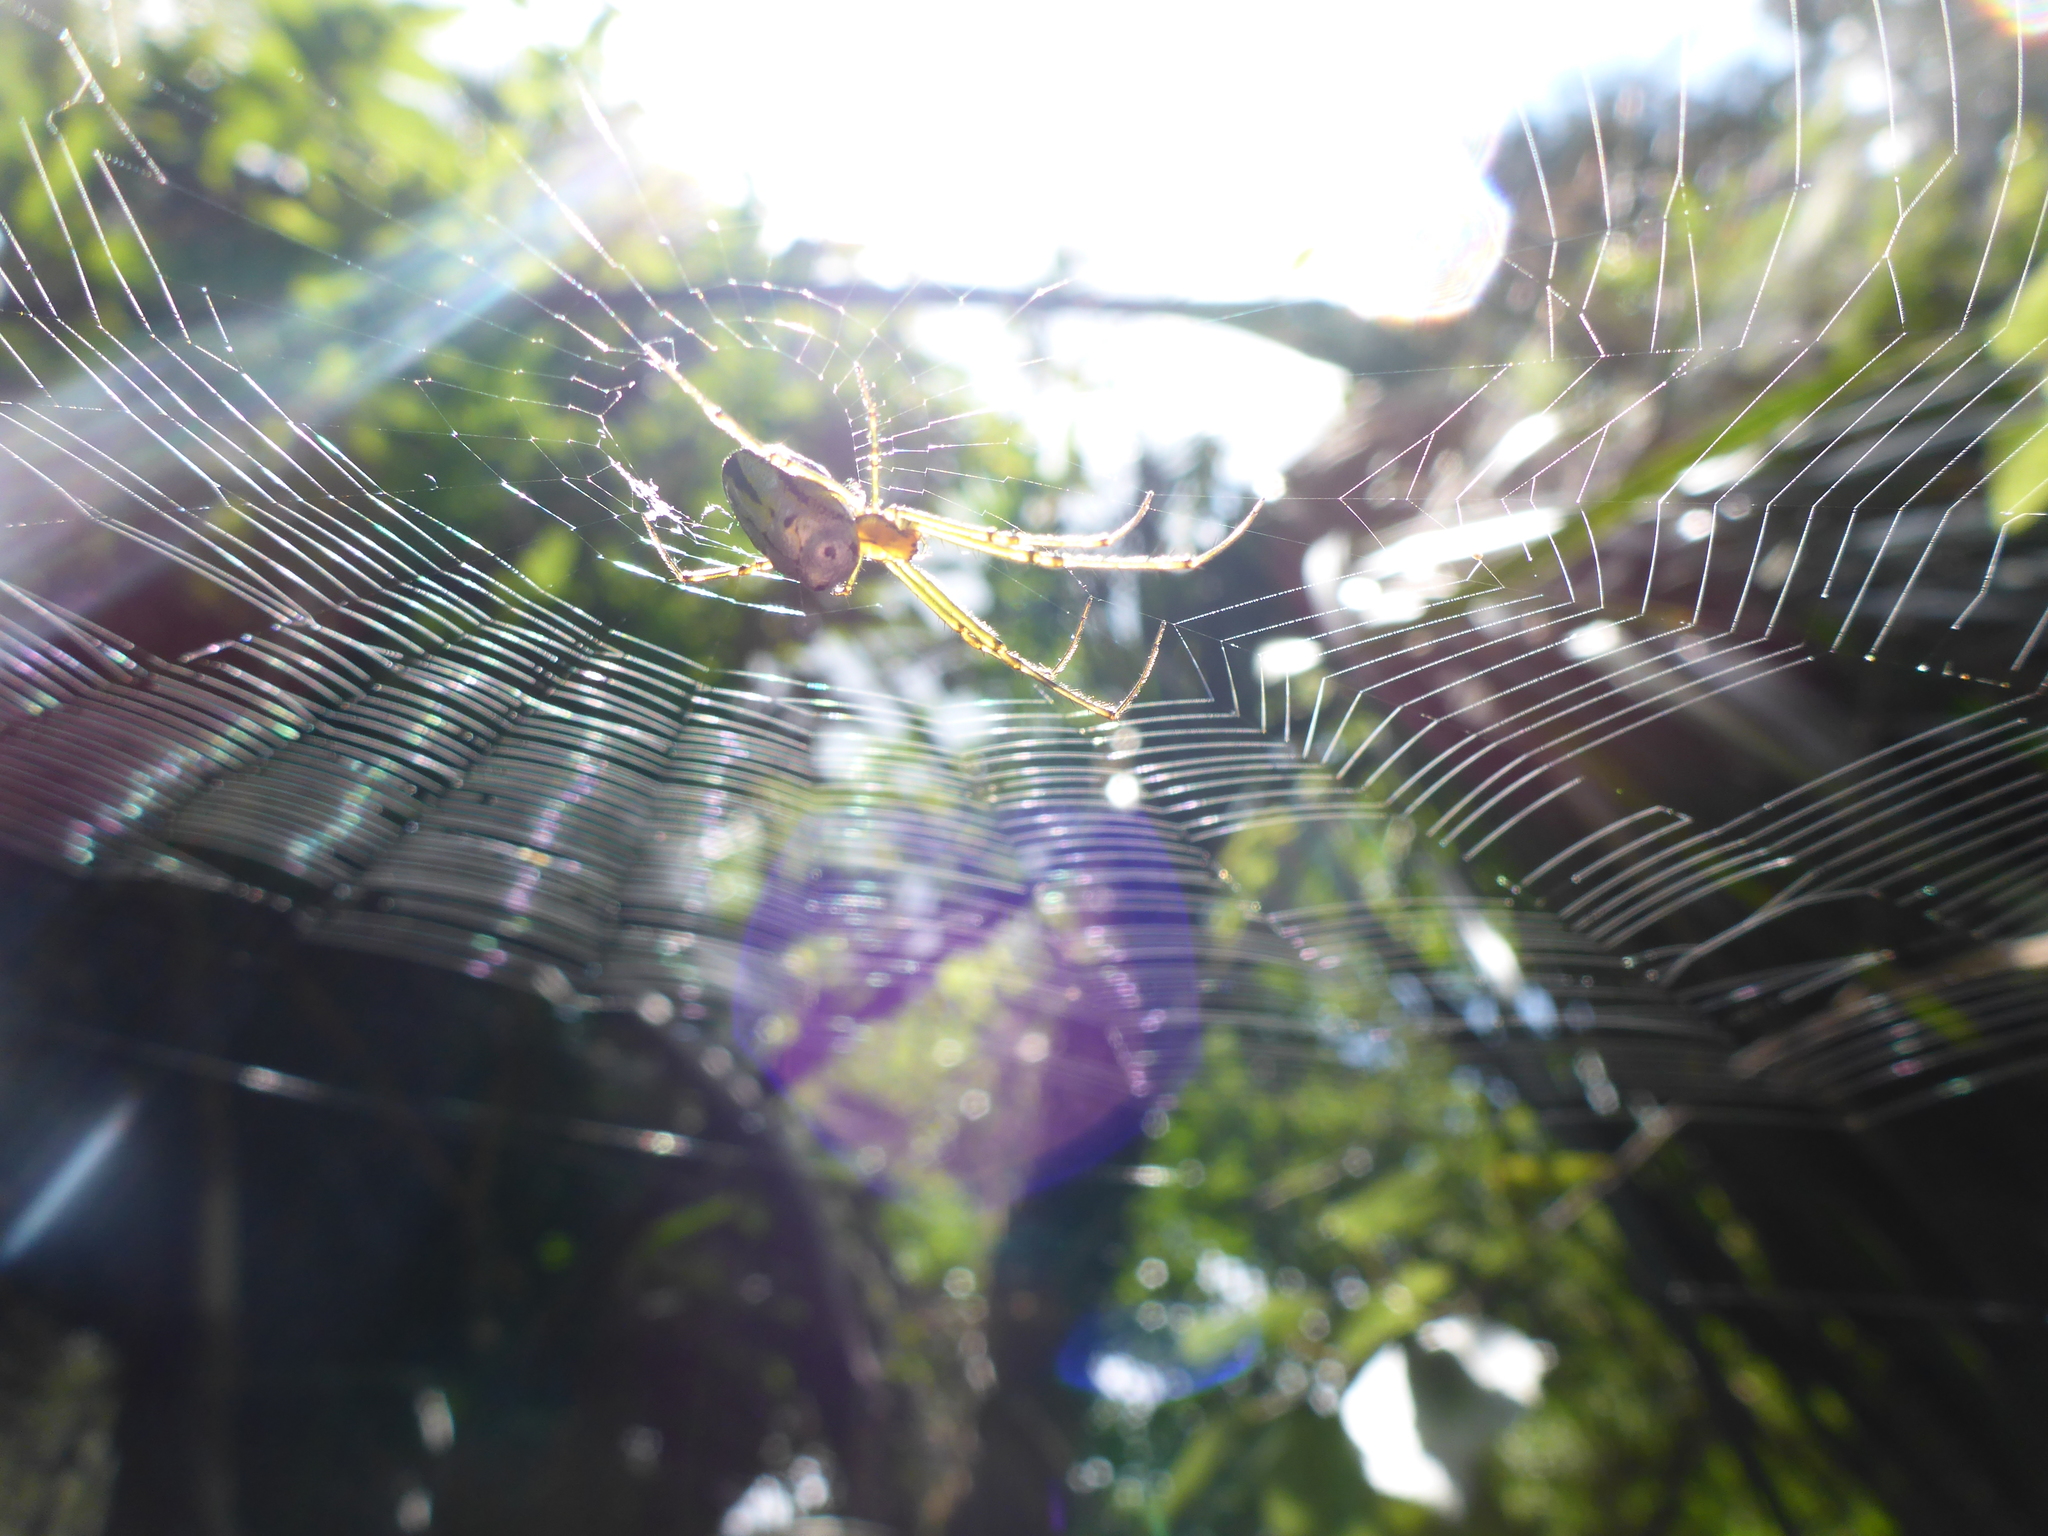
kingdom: Animalia
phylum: Arthropoda
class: Arachnida
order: Araneae
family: Tetragnathidae
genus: Leucauge
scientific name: Leucauge dromedaria
